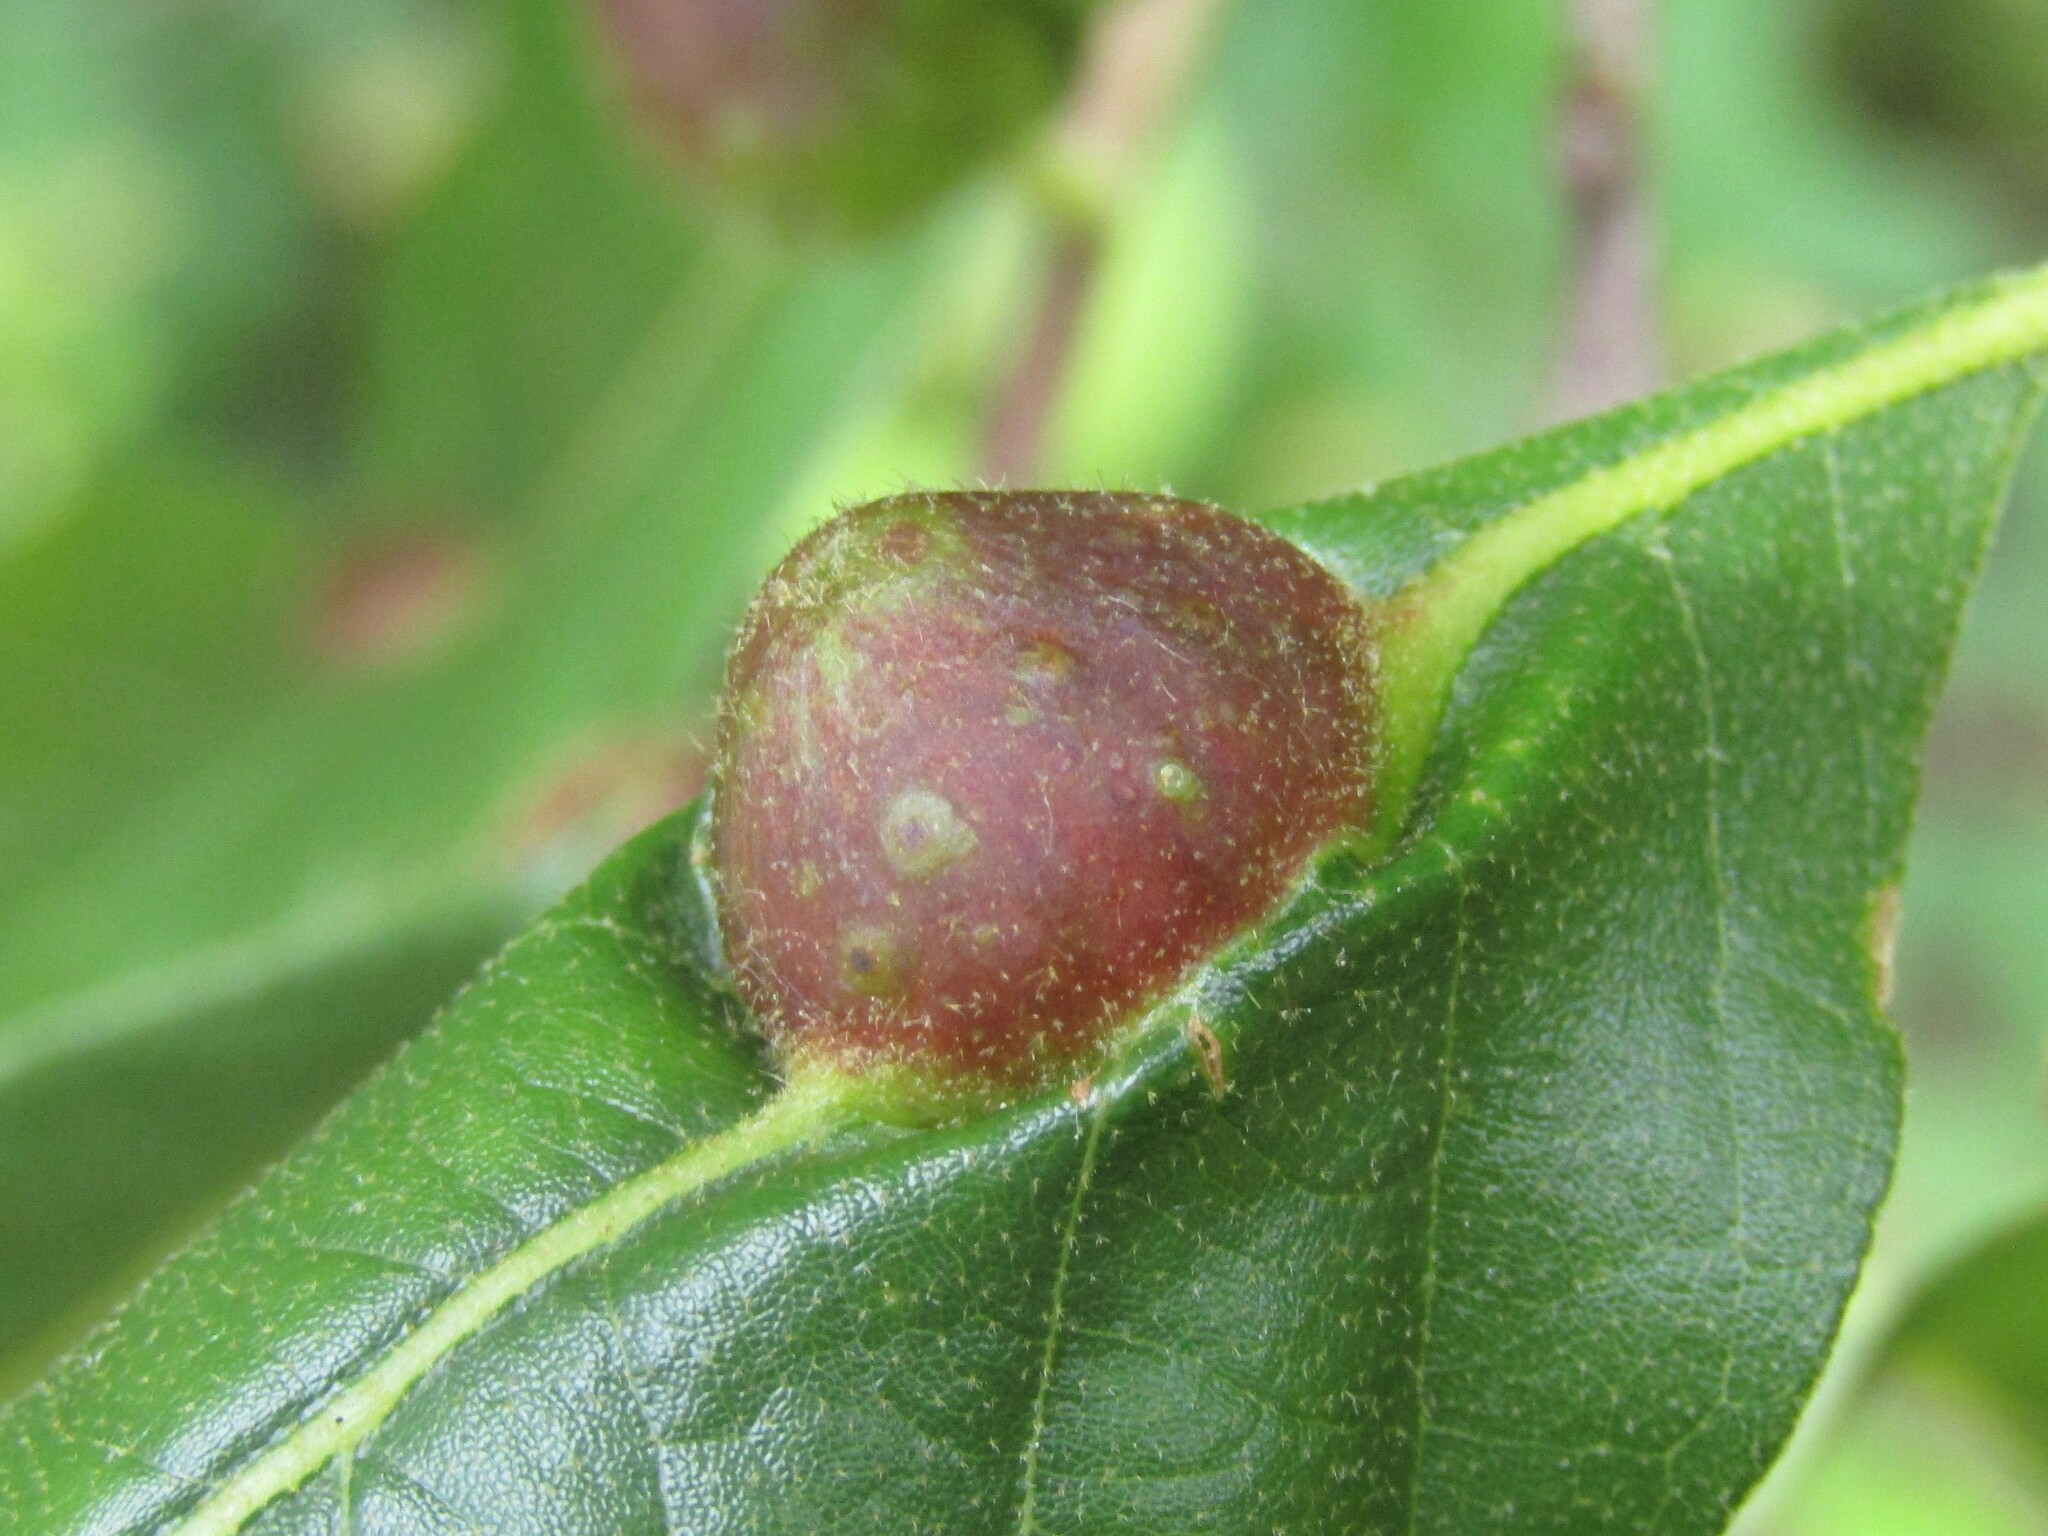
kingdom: Animalia
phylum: Arthropoda
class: Insecta
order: Hymenoptera
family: Cynipidae
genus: Andricus
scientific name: Andricus
